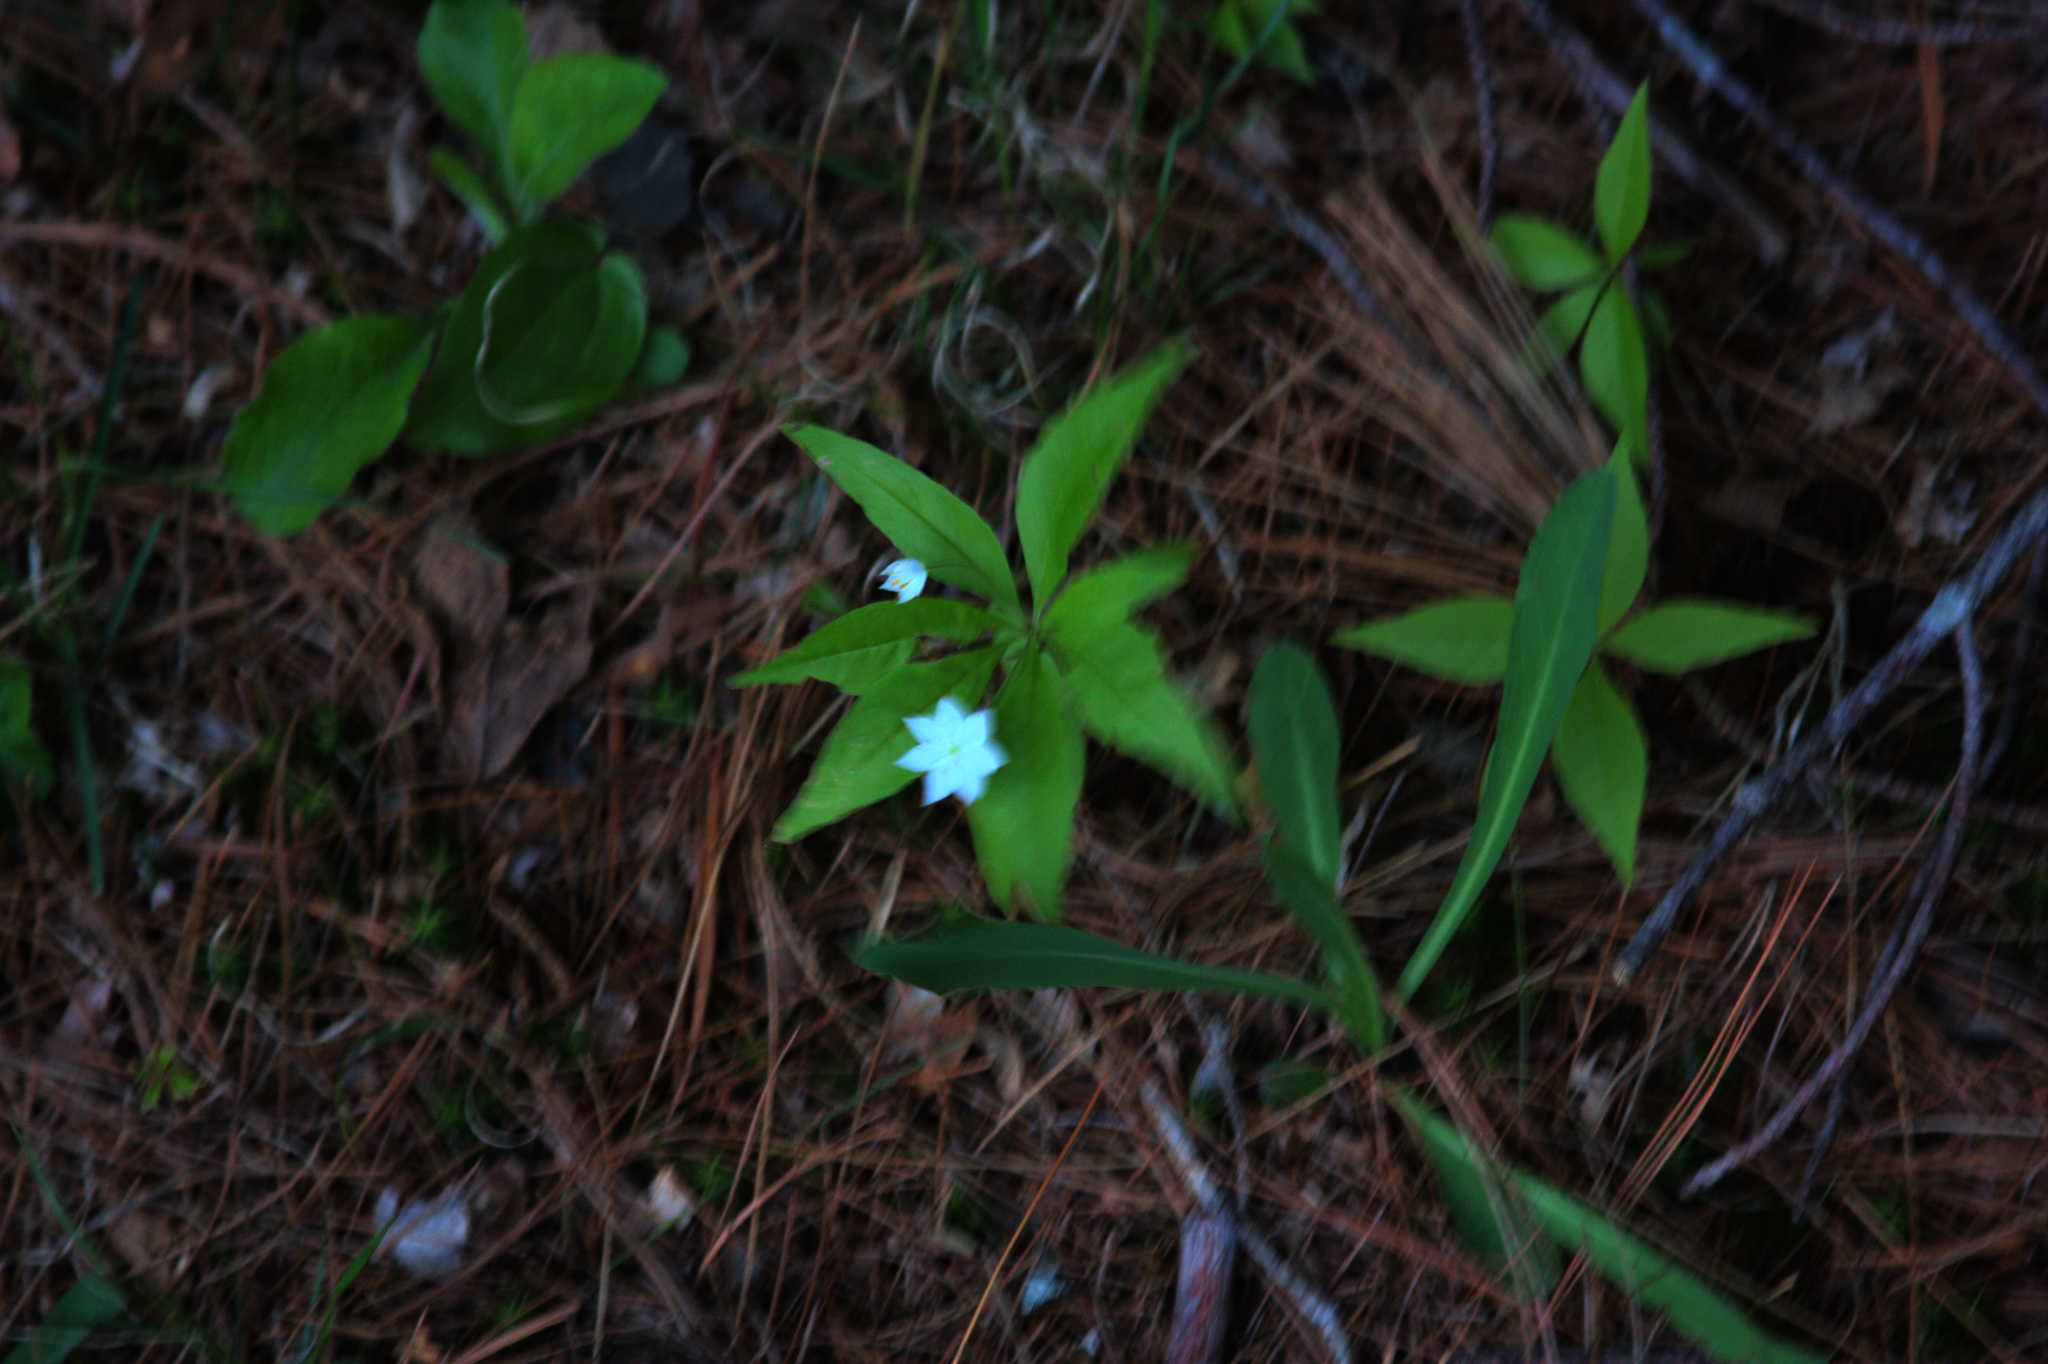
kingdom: Plantae
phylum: Tracheophyta
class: Magnoliopsida
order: Ericales
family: Primulaceae
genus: Lysimachia
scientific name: Lysimachia borealis
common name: American starflower
